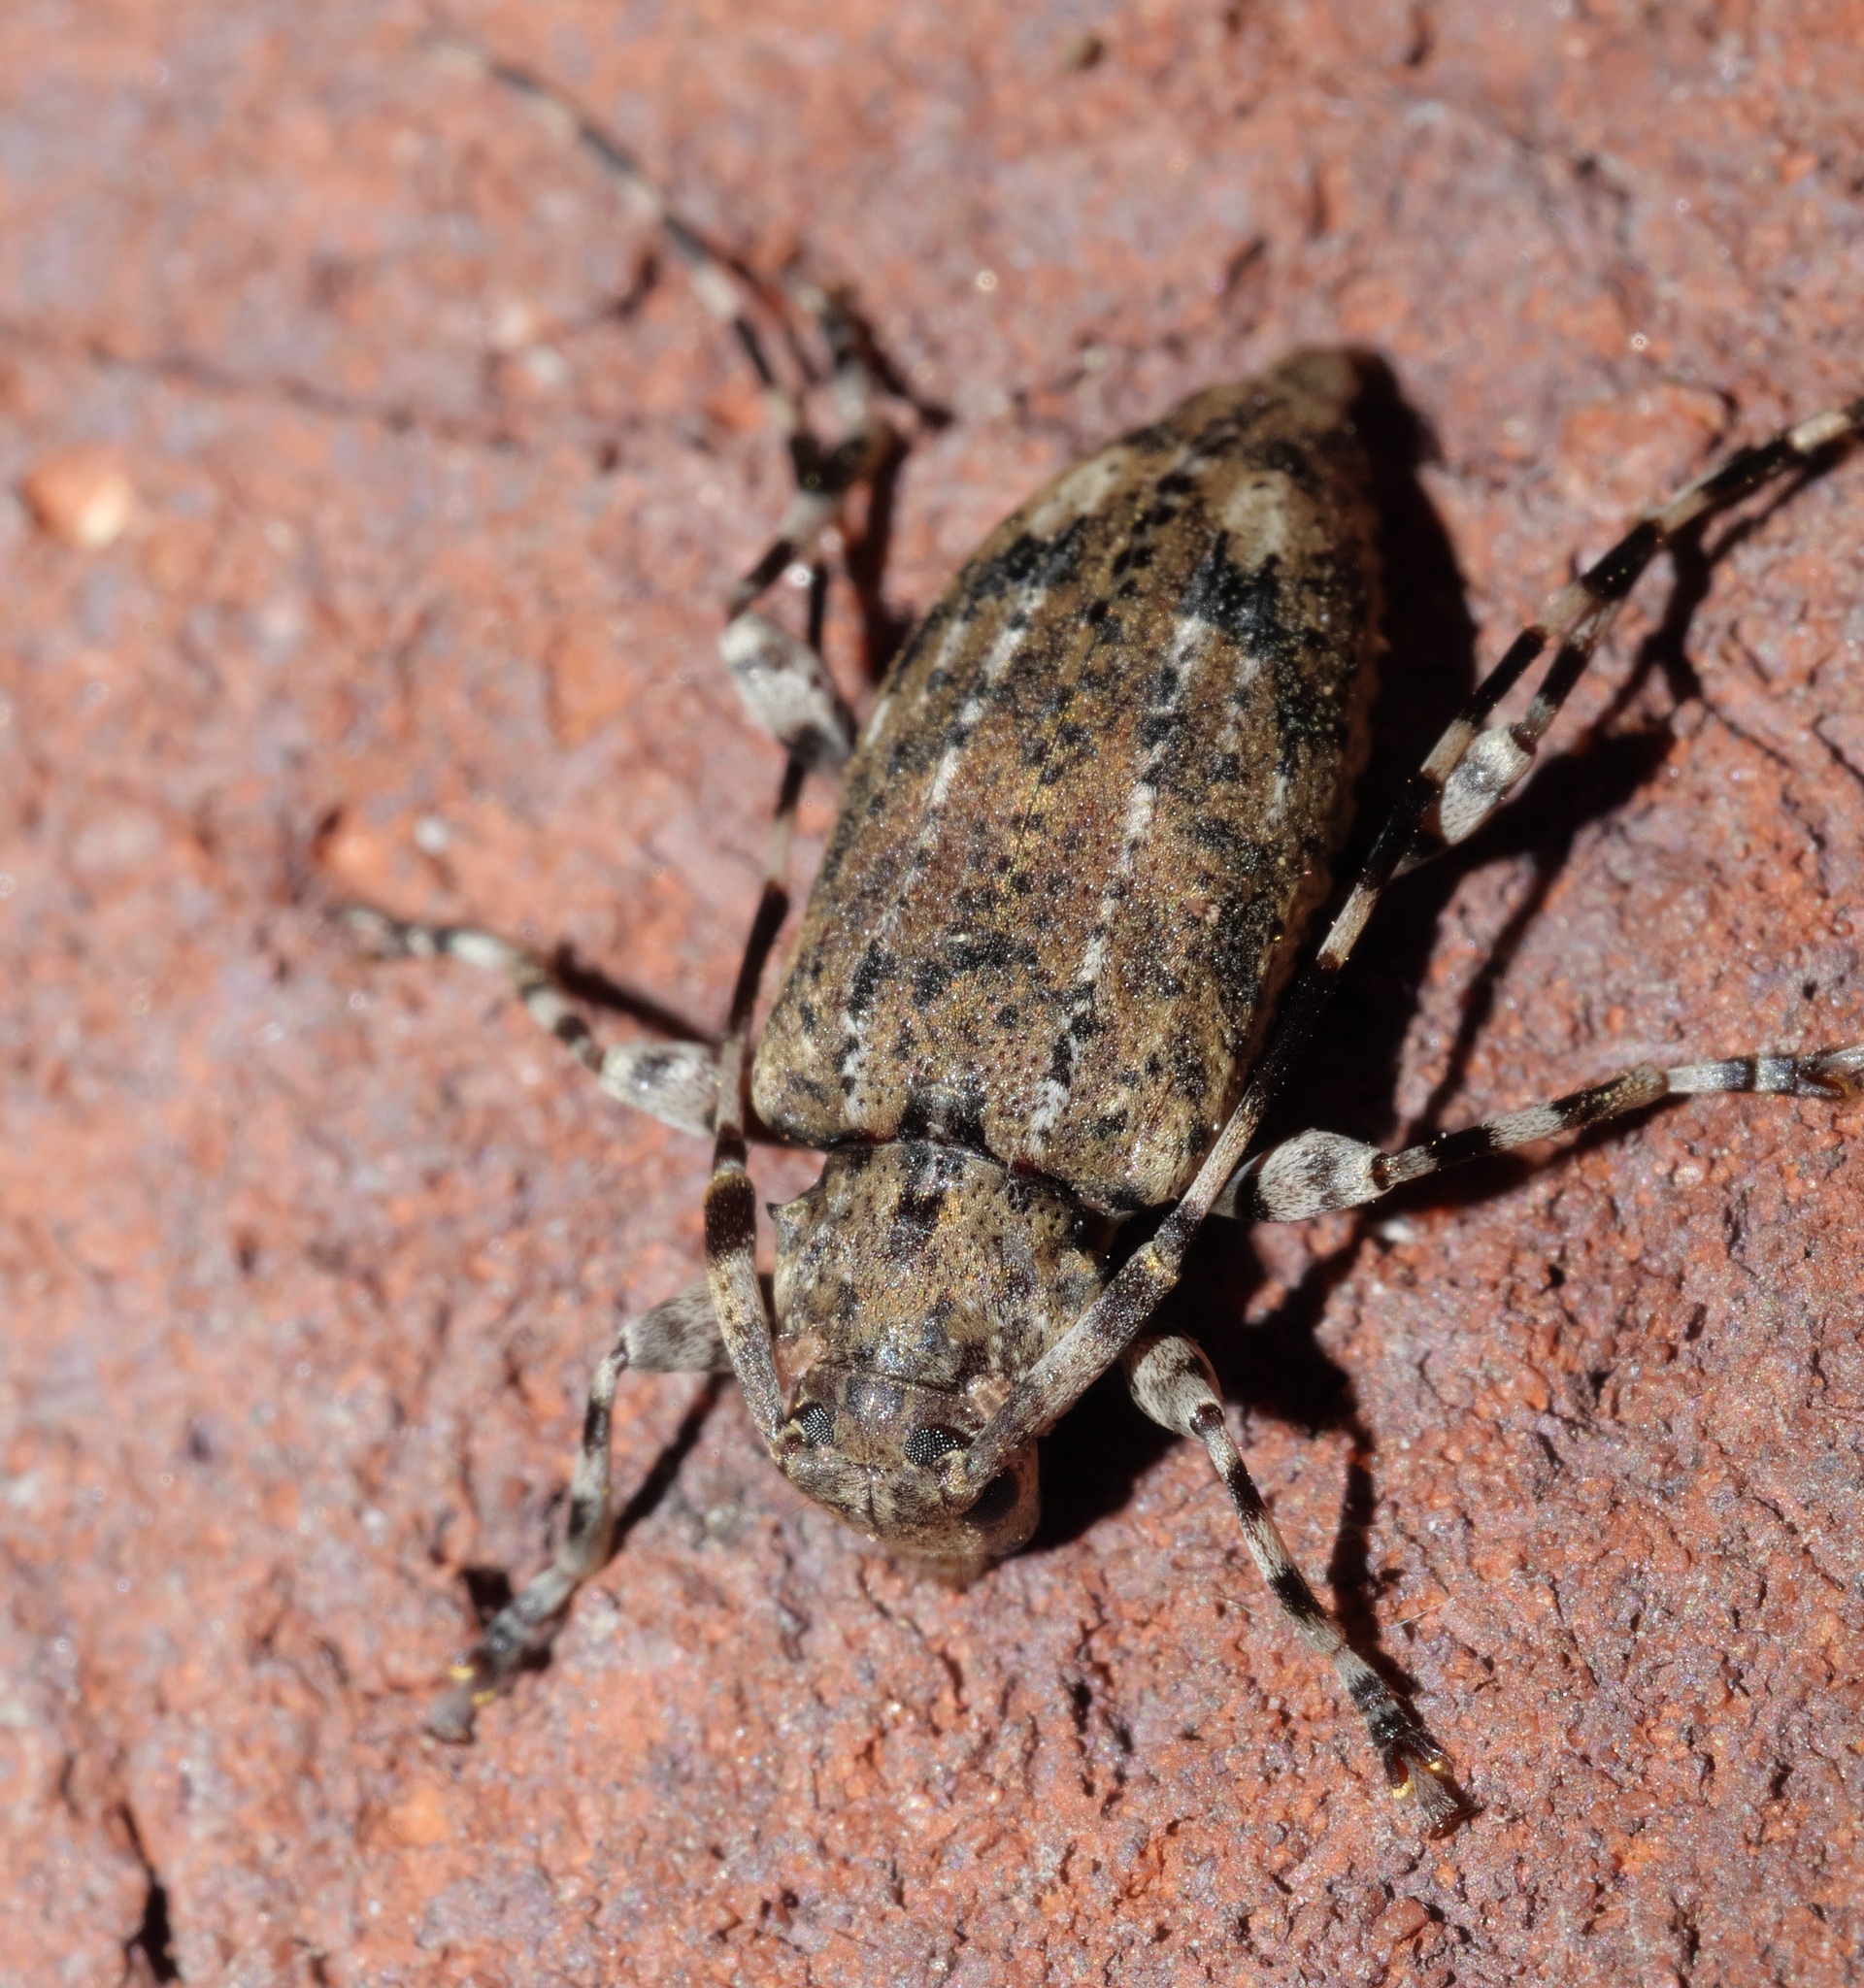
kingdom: Animalia
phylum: Arthropoda
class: Insecta
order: Coleoptera
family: Cerambycidae
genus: Astyleiopus
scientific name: Astyleiopus variegatus
